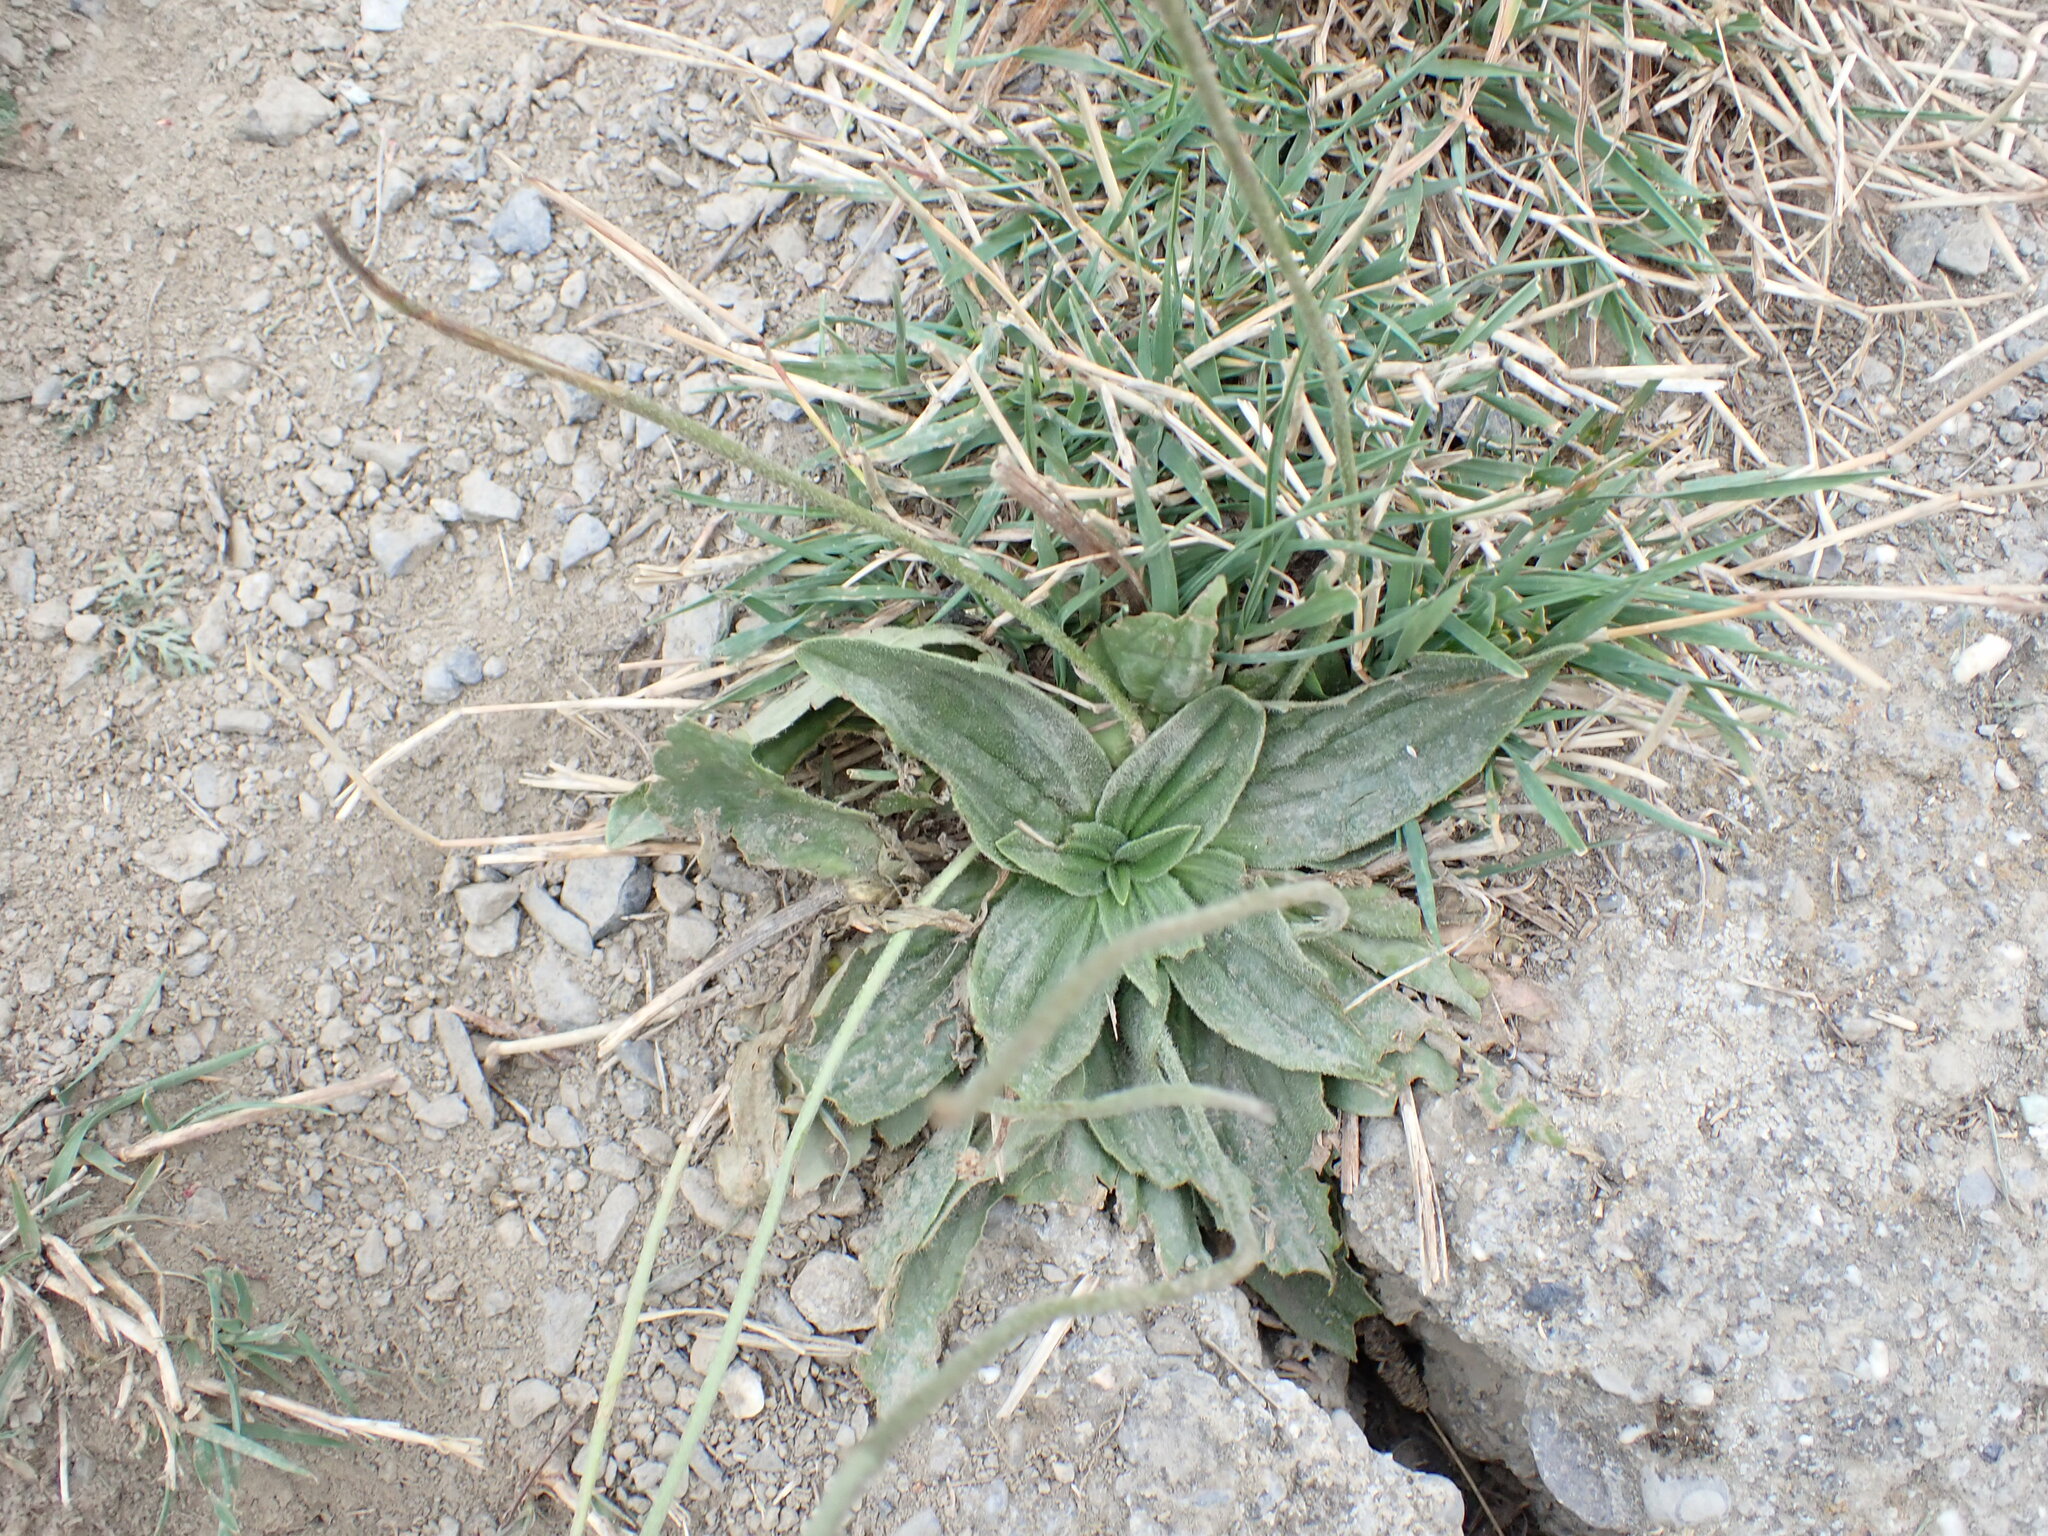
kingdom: Plantae
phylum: Tracheophyta
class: Magnoliopsida
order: Lamiales
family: Plantaginaceae
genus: Plantago
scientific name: Plantago media
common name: Hoary plantain
